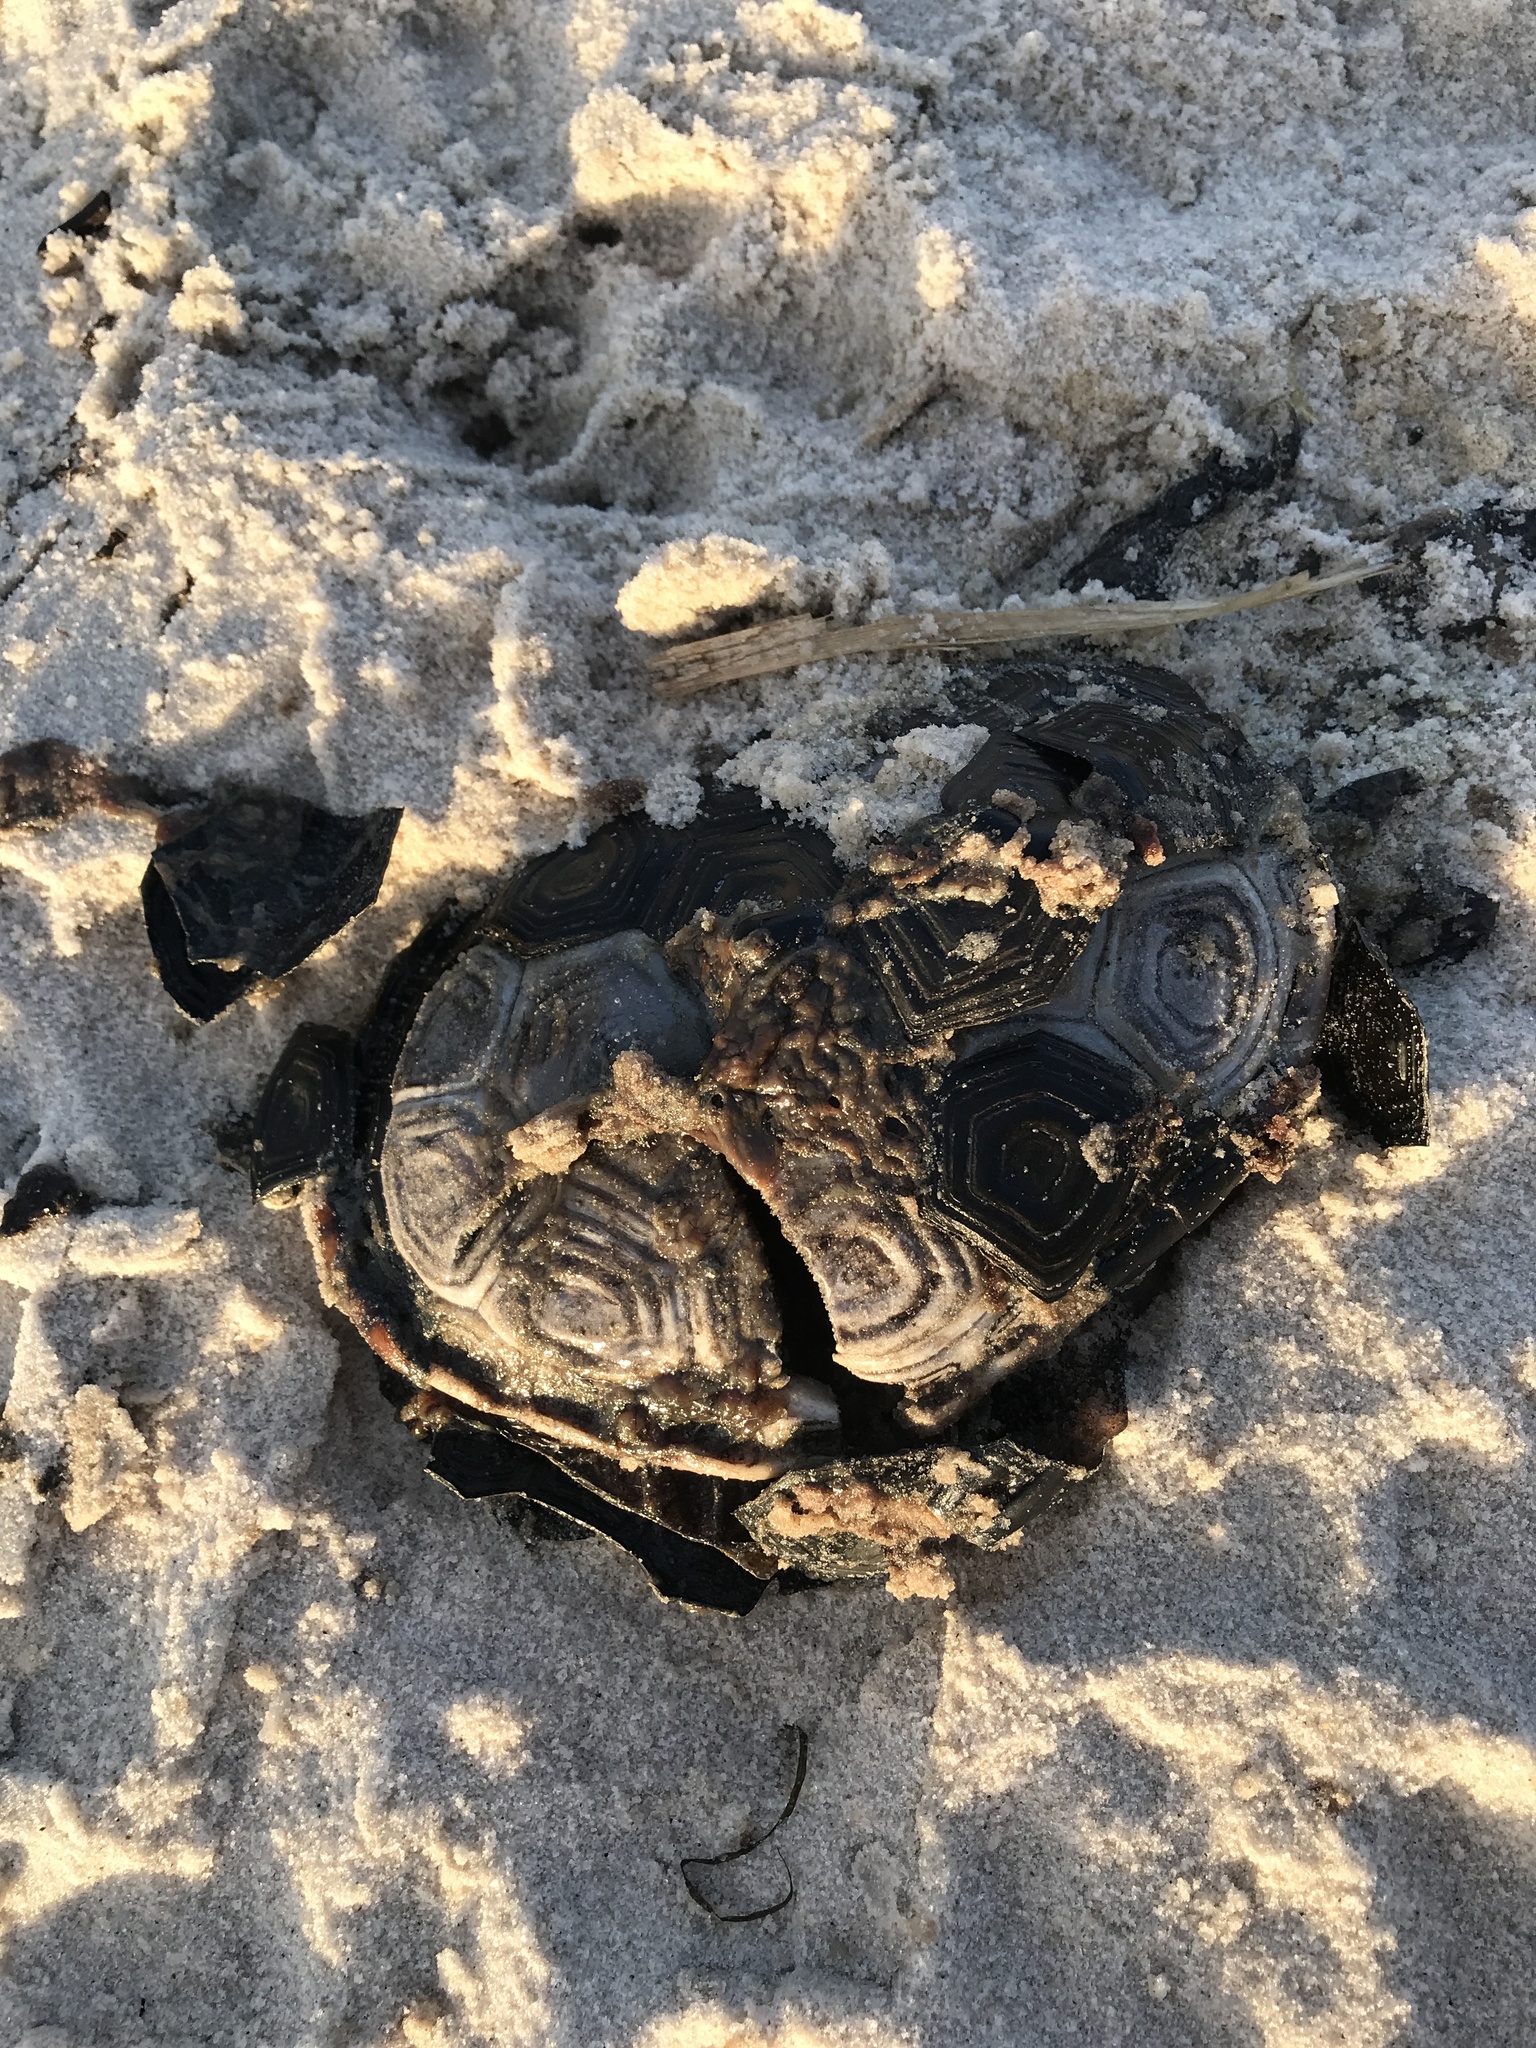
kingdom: Animalia
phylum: Chordata
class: Testudines
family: Emydidae
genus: Malaclemys
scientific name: Malaclemys terrapin
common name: Diamondback terrapin
